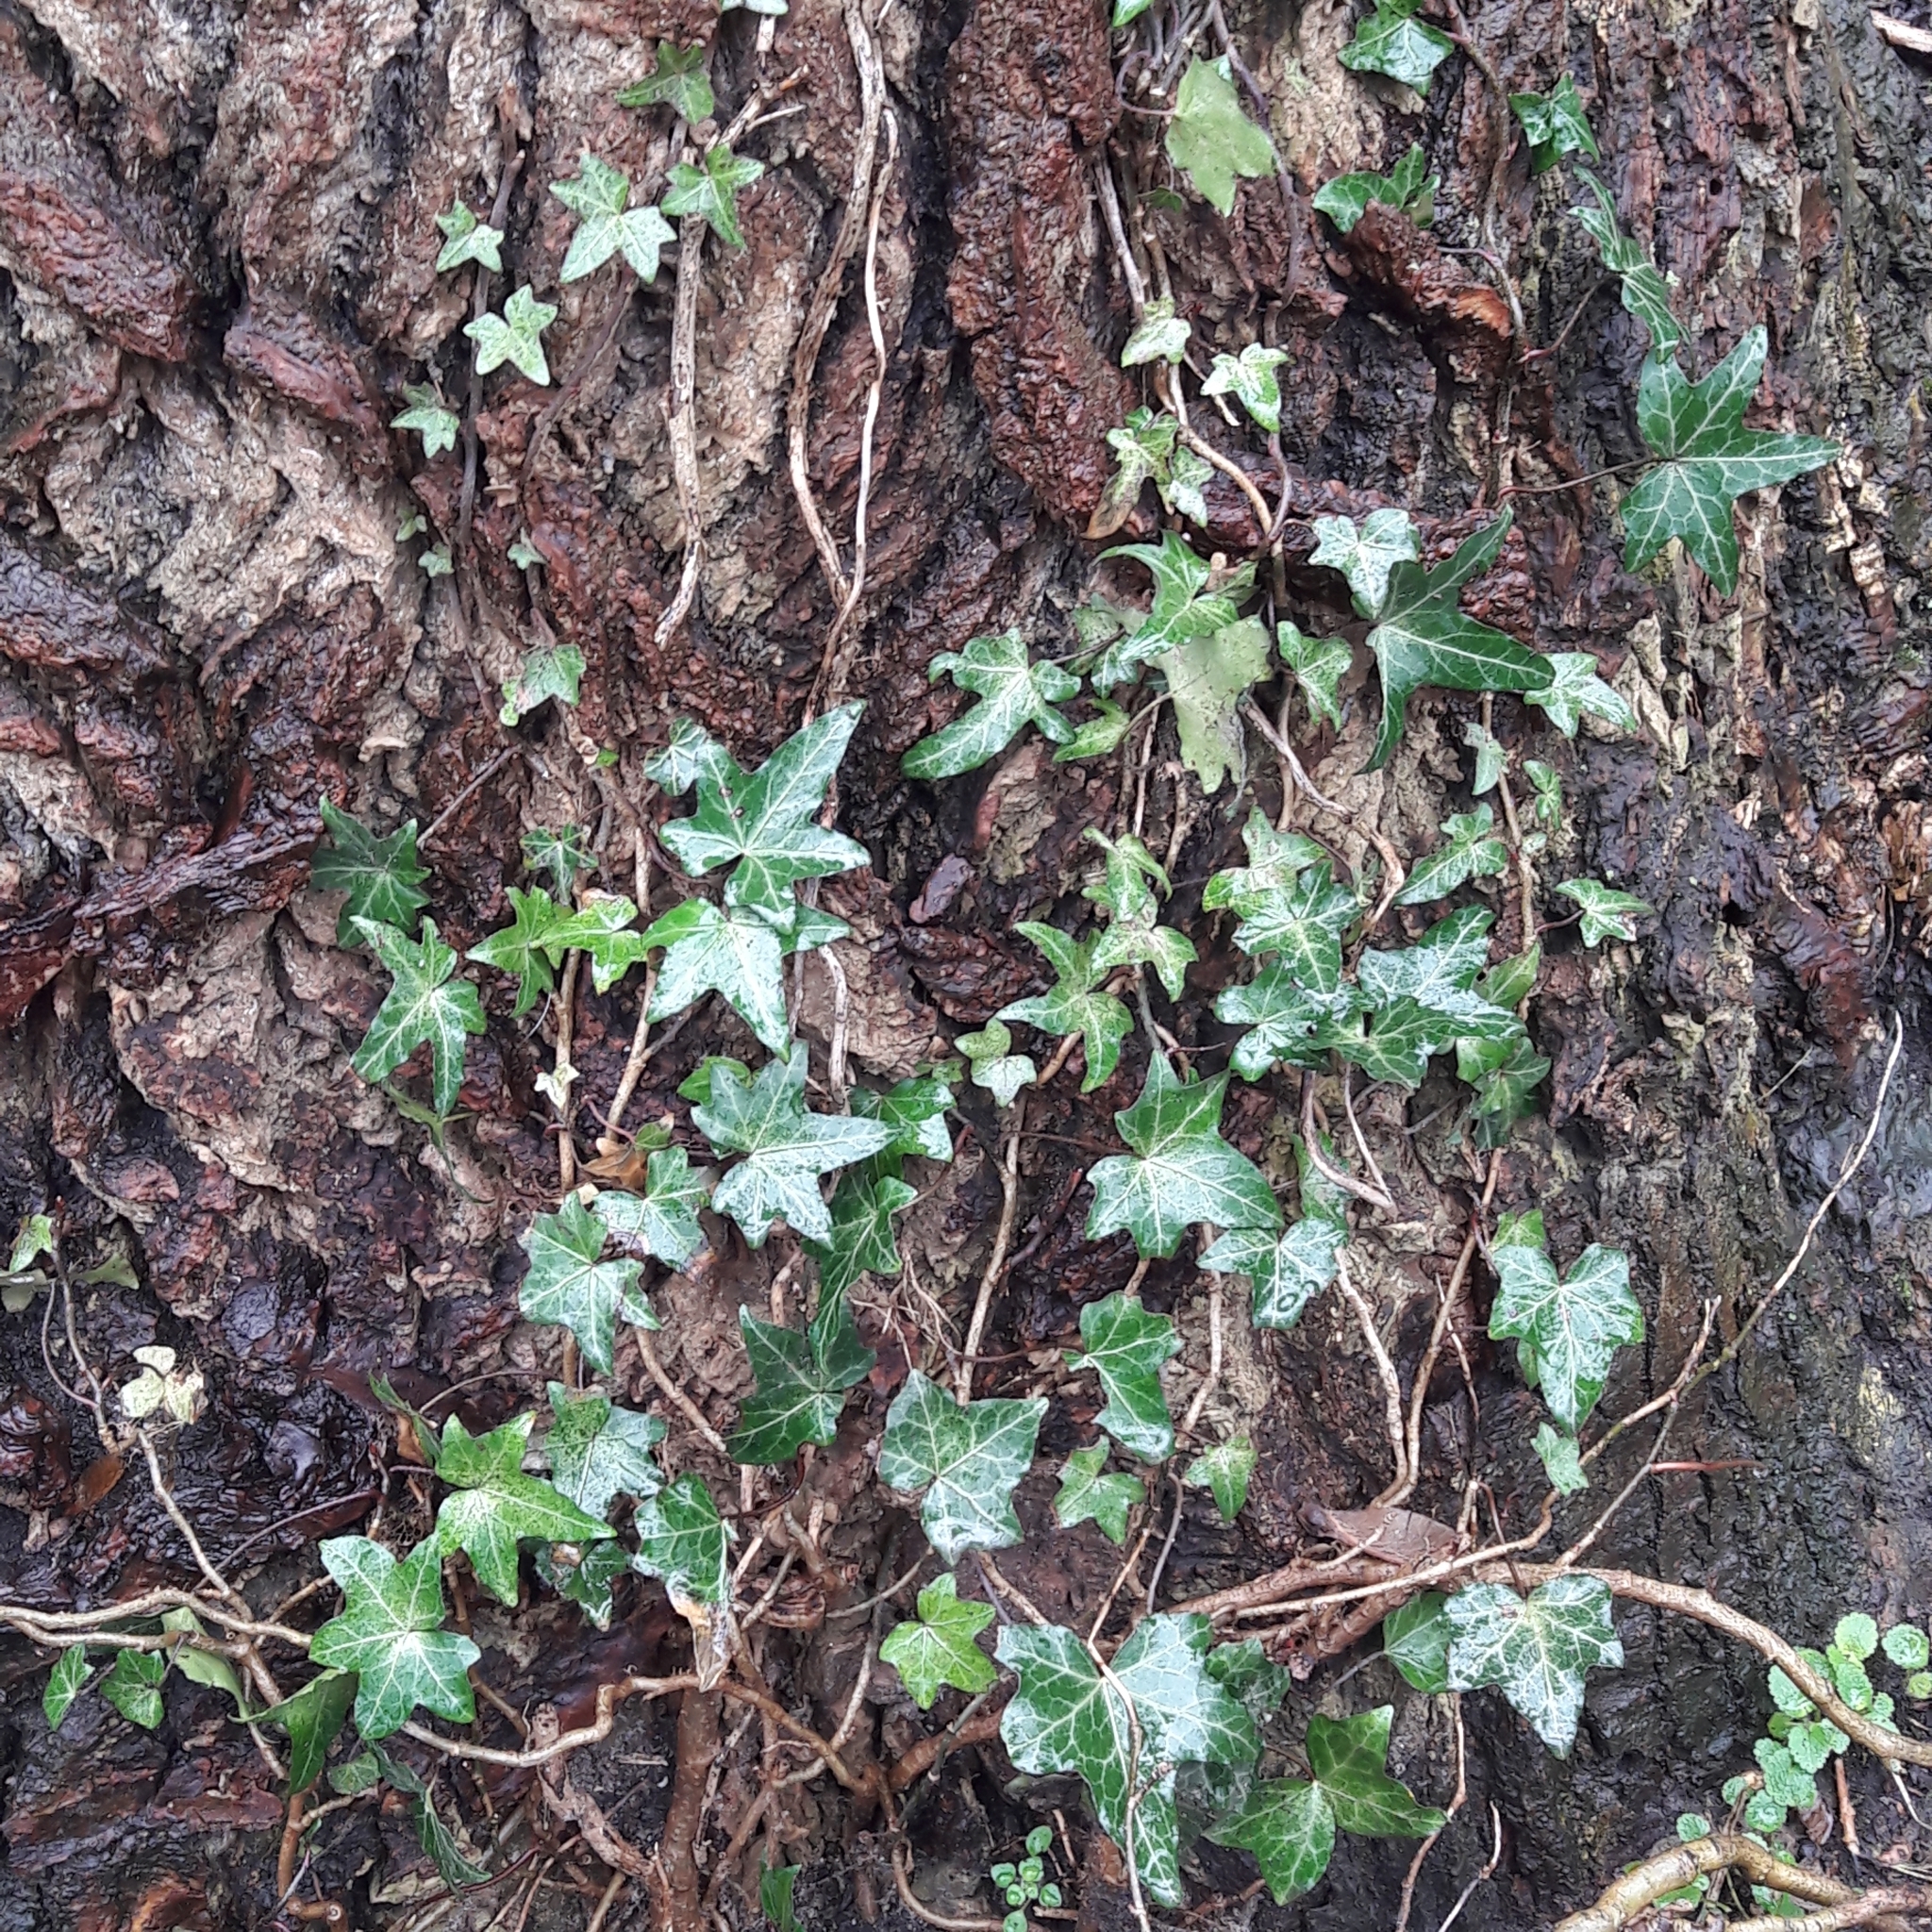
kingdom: Plantae
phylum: Tracheophyta
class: Magnoliopsida
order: Apiales
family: Araliaceae
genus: Hedera
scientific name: Hedera helix
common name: Ivy
